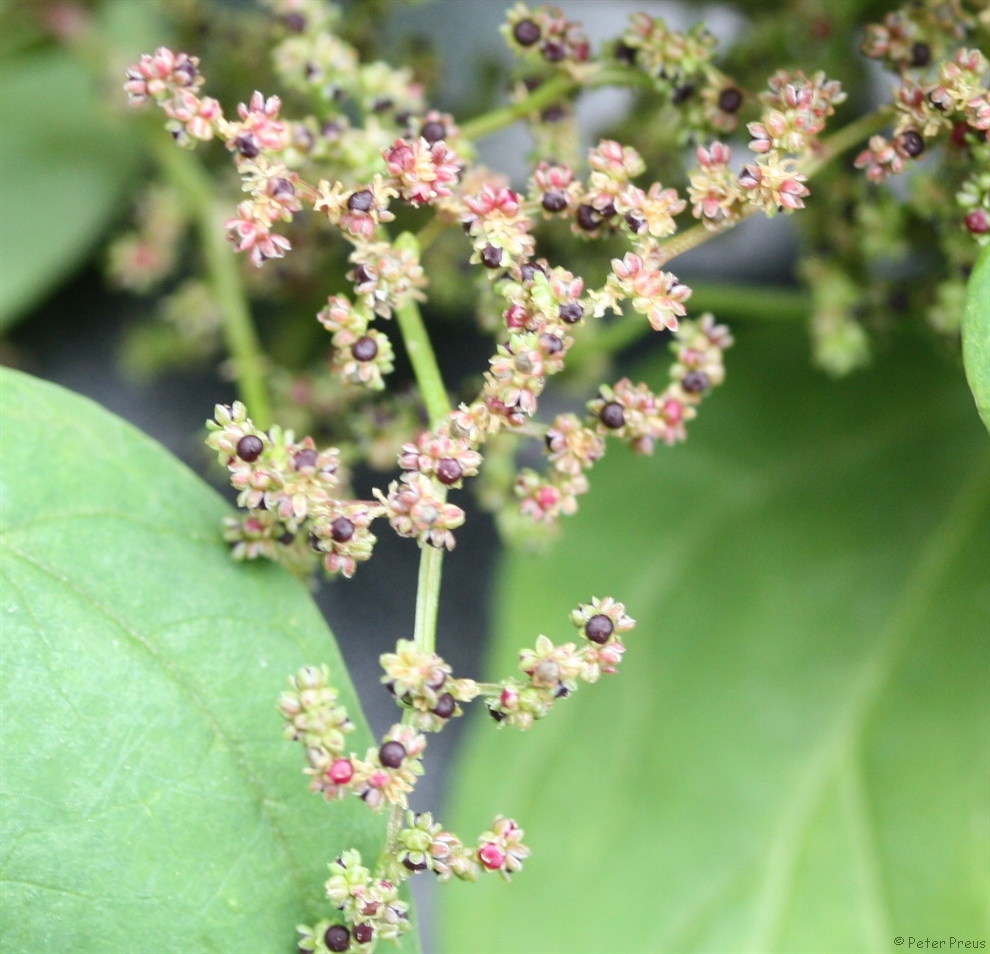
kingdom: Plantae
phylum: Tracheophyta
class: Magnoliopsida
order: Caryophyllales
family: Amaranthaceae
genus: Lipandra
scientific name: Lipandra polysperma
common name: Many-seed goosefoot
